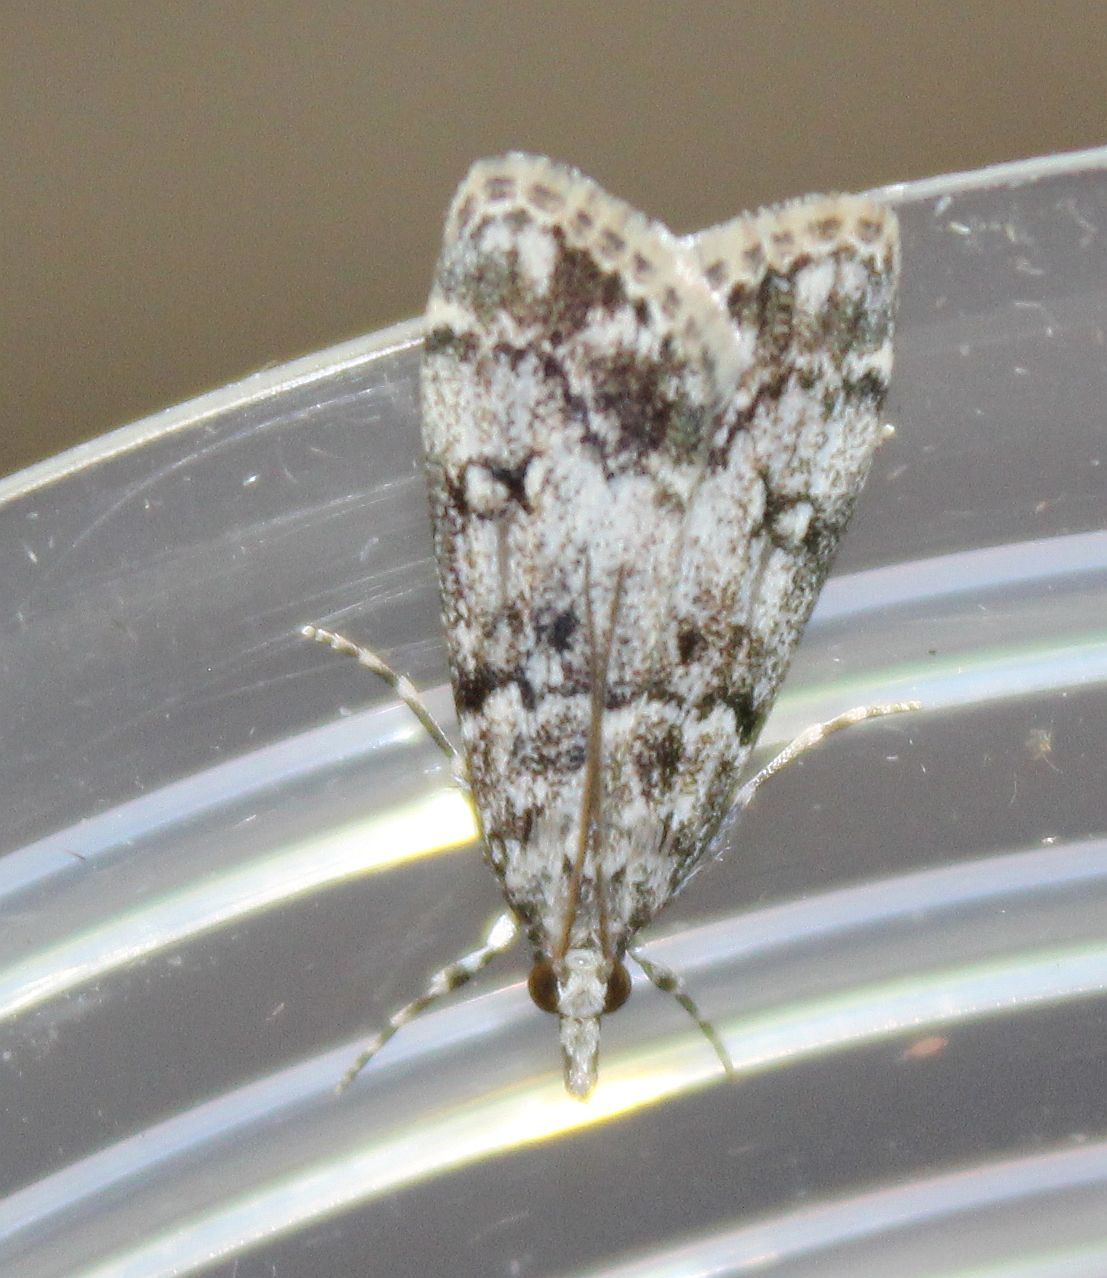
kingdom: Animalia
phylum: Arthropoda
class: Insecta
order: Lepidoptera
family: Crambidae
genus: Eudonia
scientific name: Eudonia lacustrata
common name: Little grey
